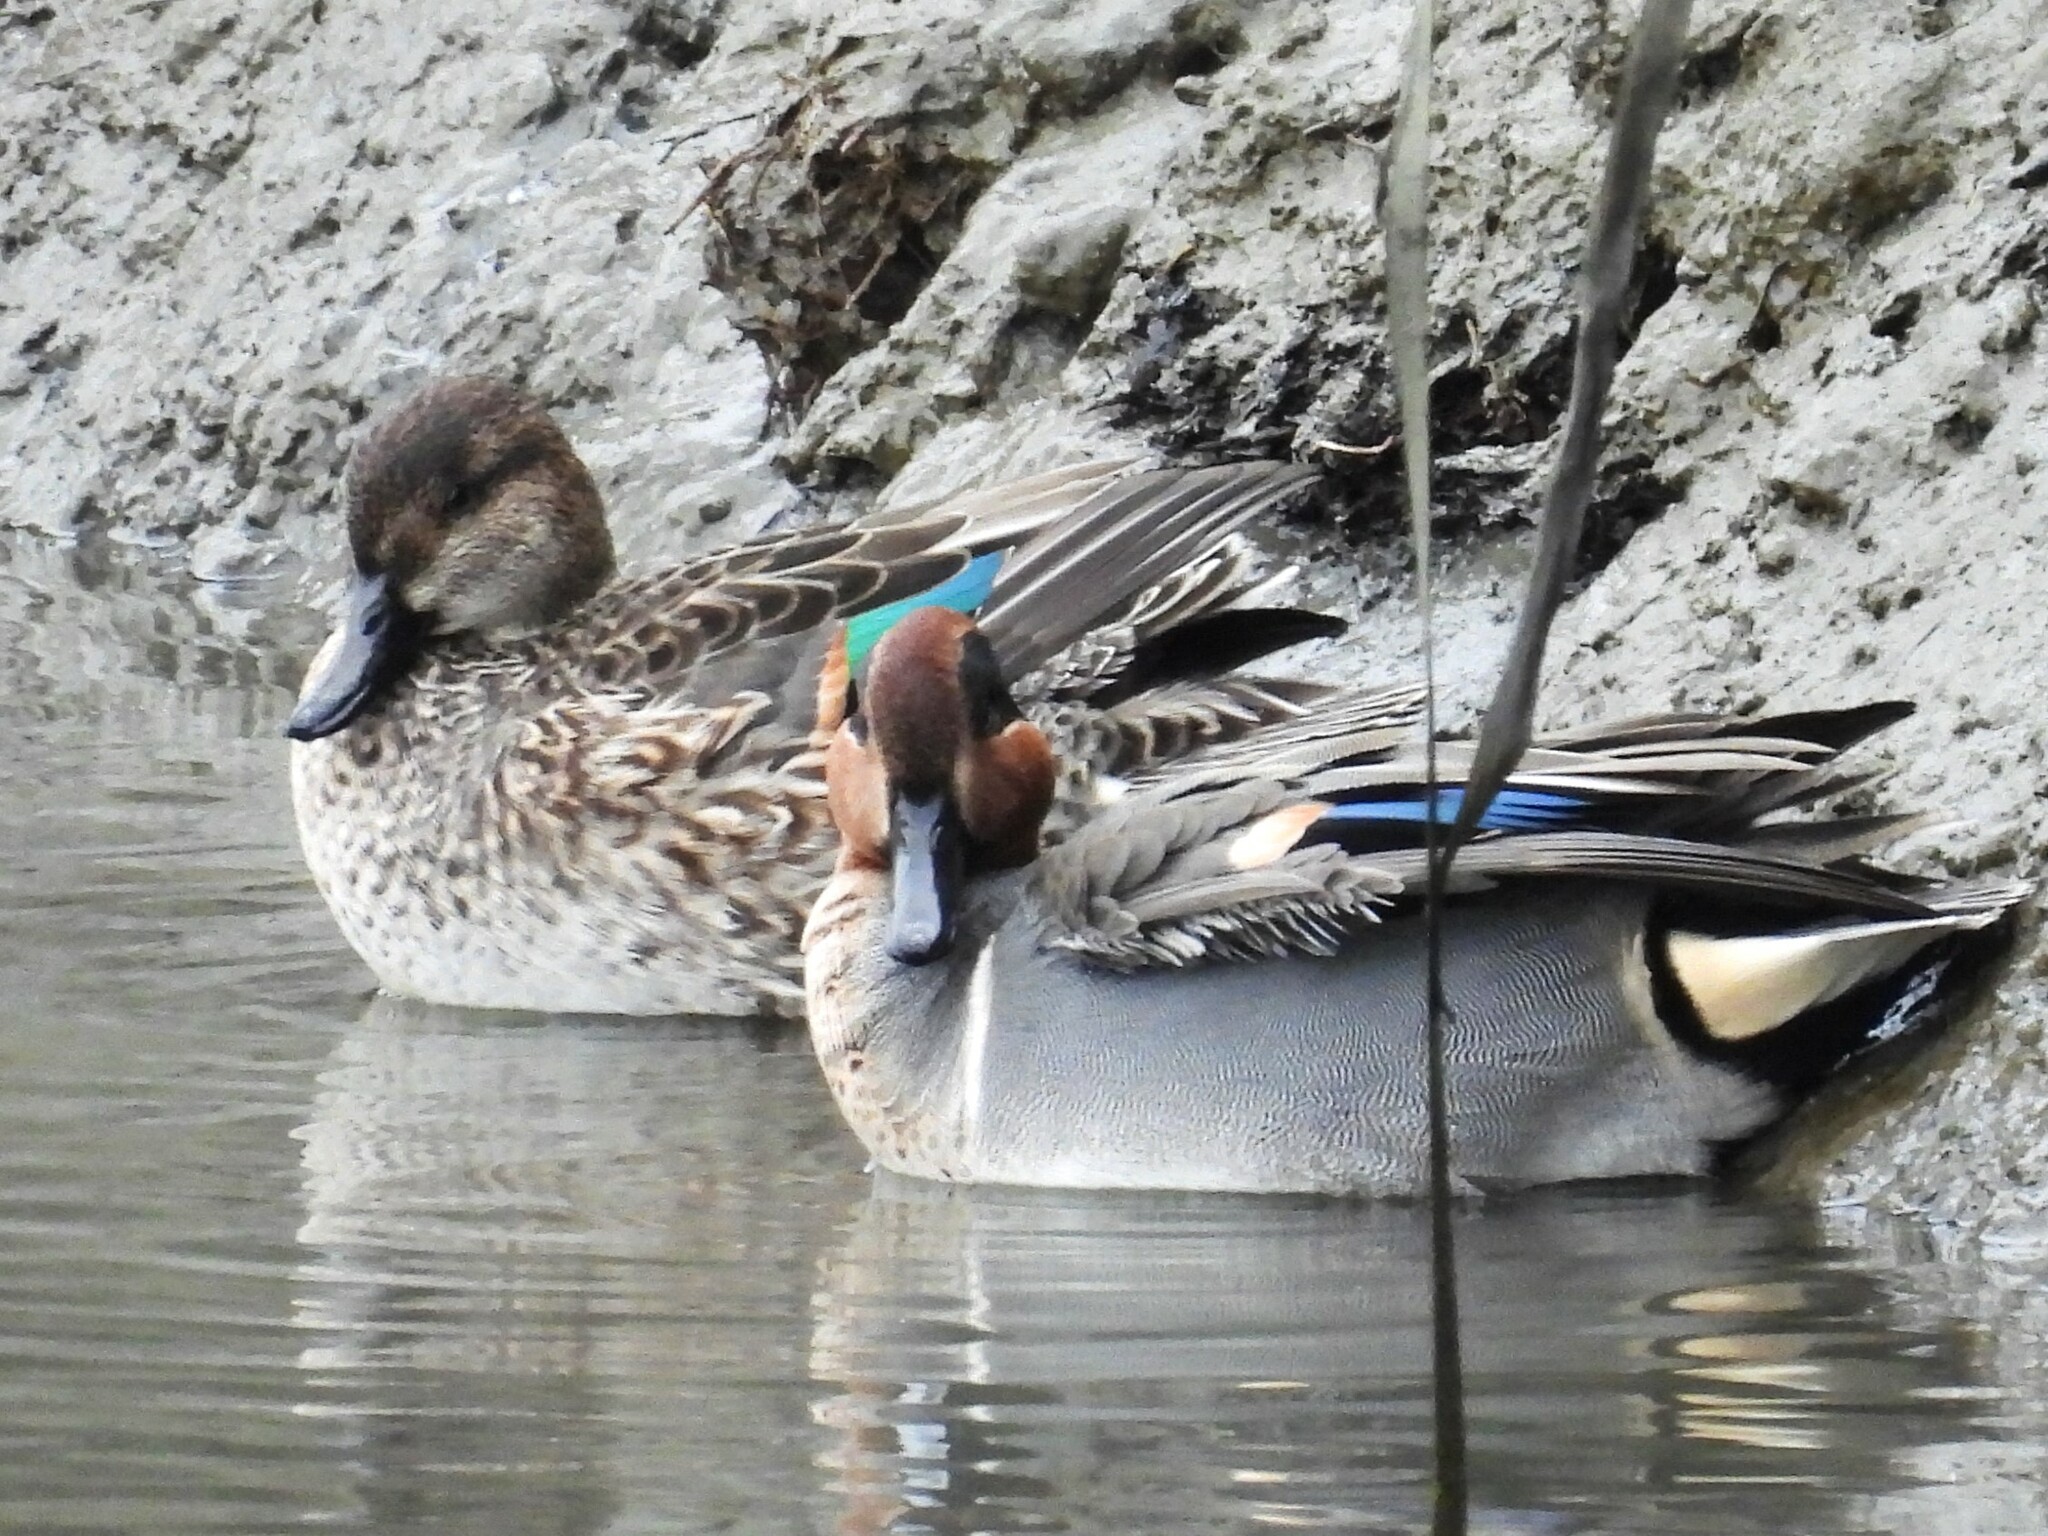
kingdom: Animalia
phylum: Chordata
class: Aves
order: Anseriformes
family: Anatidae
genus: Anas
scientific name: Anas crecca
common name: Eurasian teal
